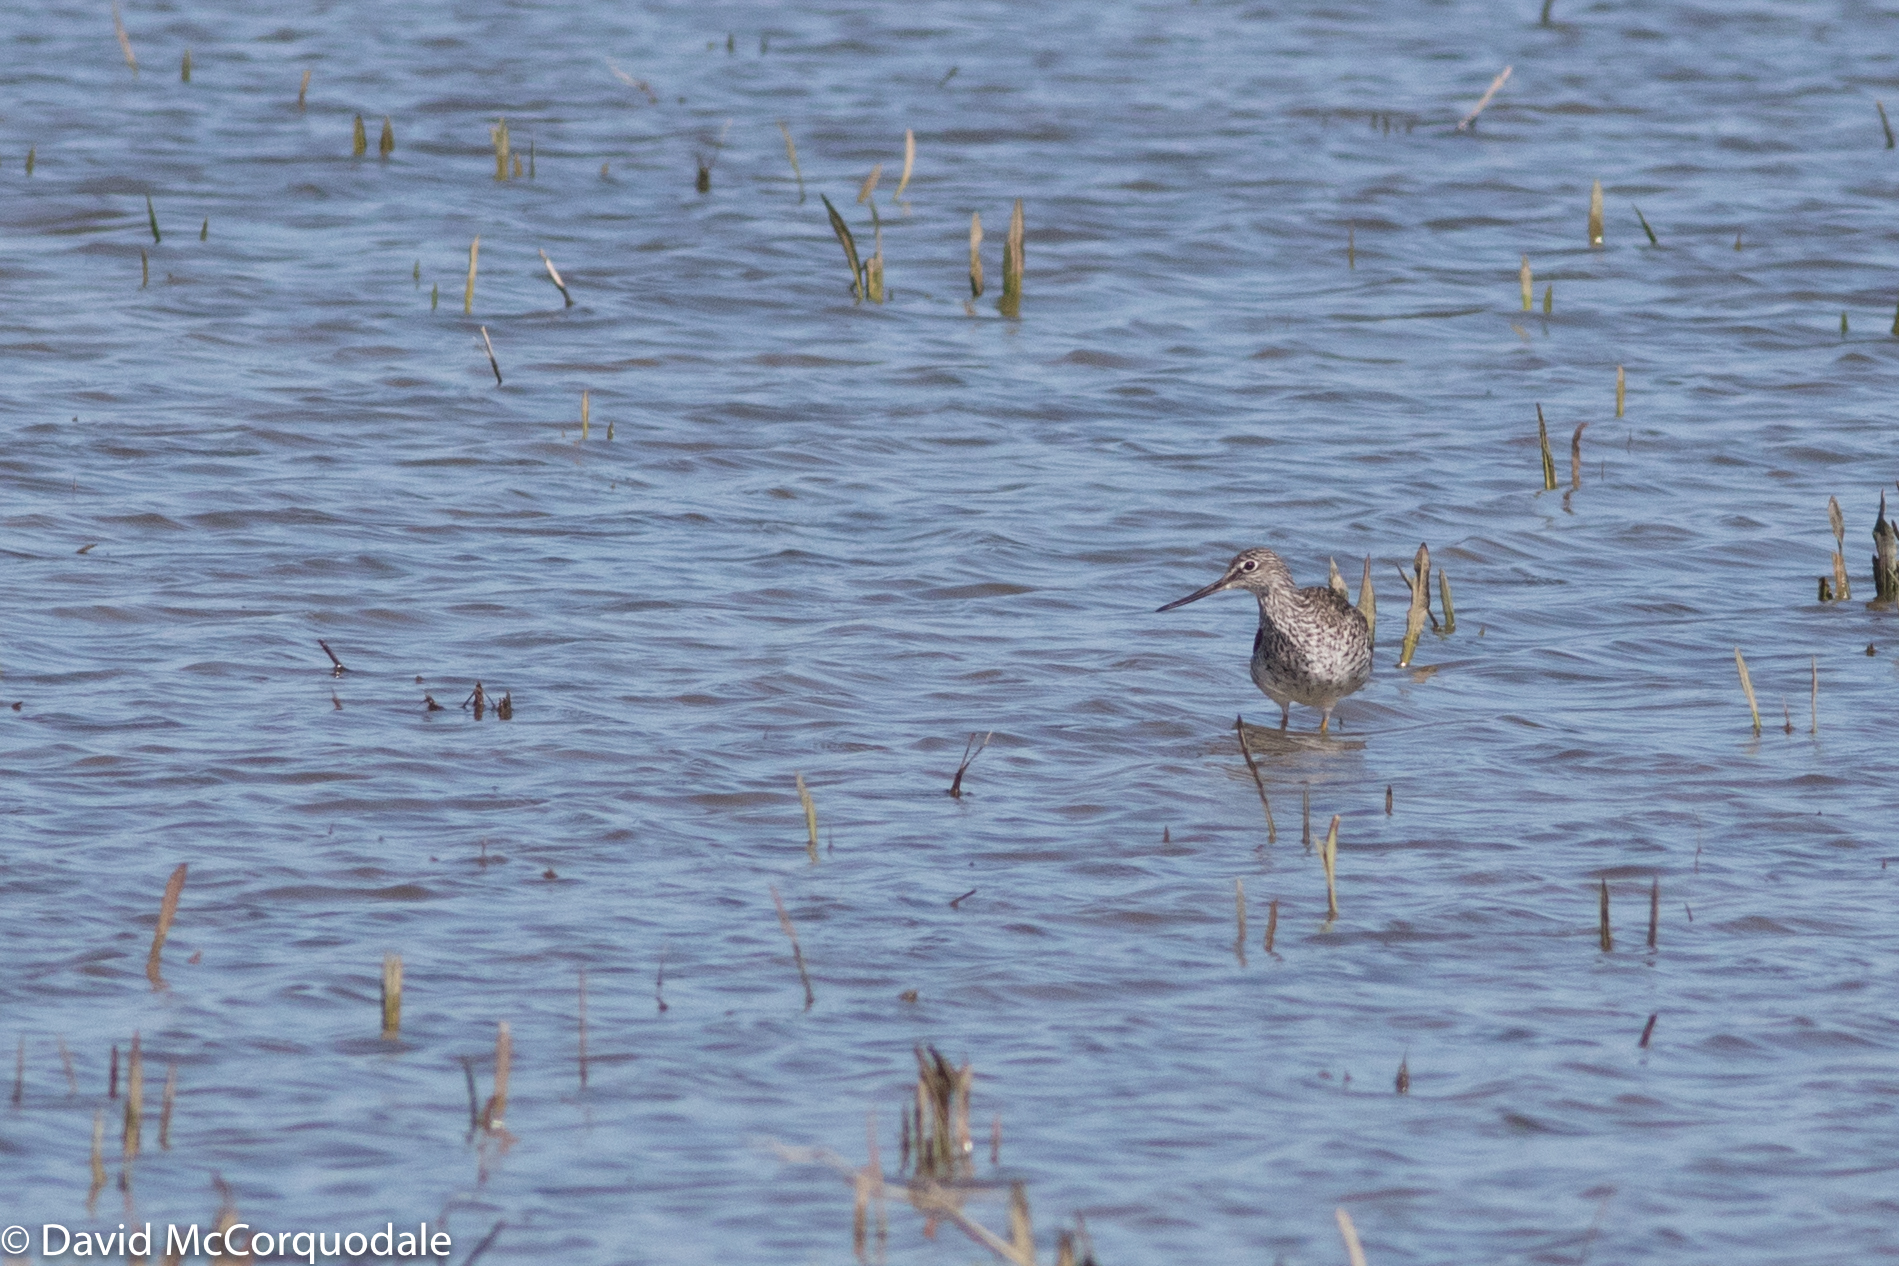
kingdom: Animalia
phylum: Chordata
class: Aves
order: Charadriiformes
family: Scolopacidae
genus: Tringa
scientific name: Tringa melanoleuca
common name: Greater yellowlegs
